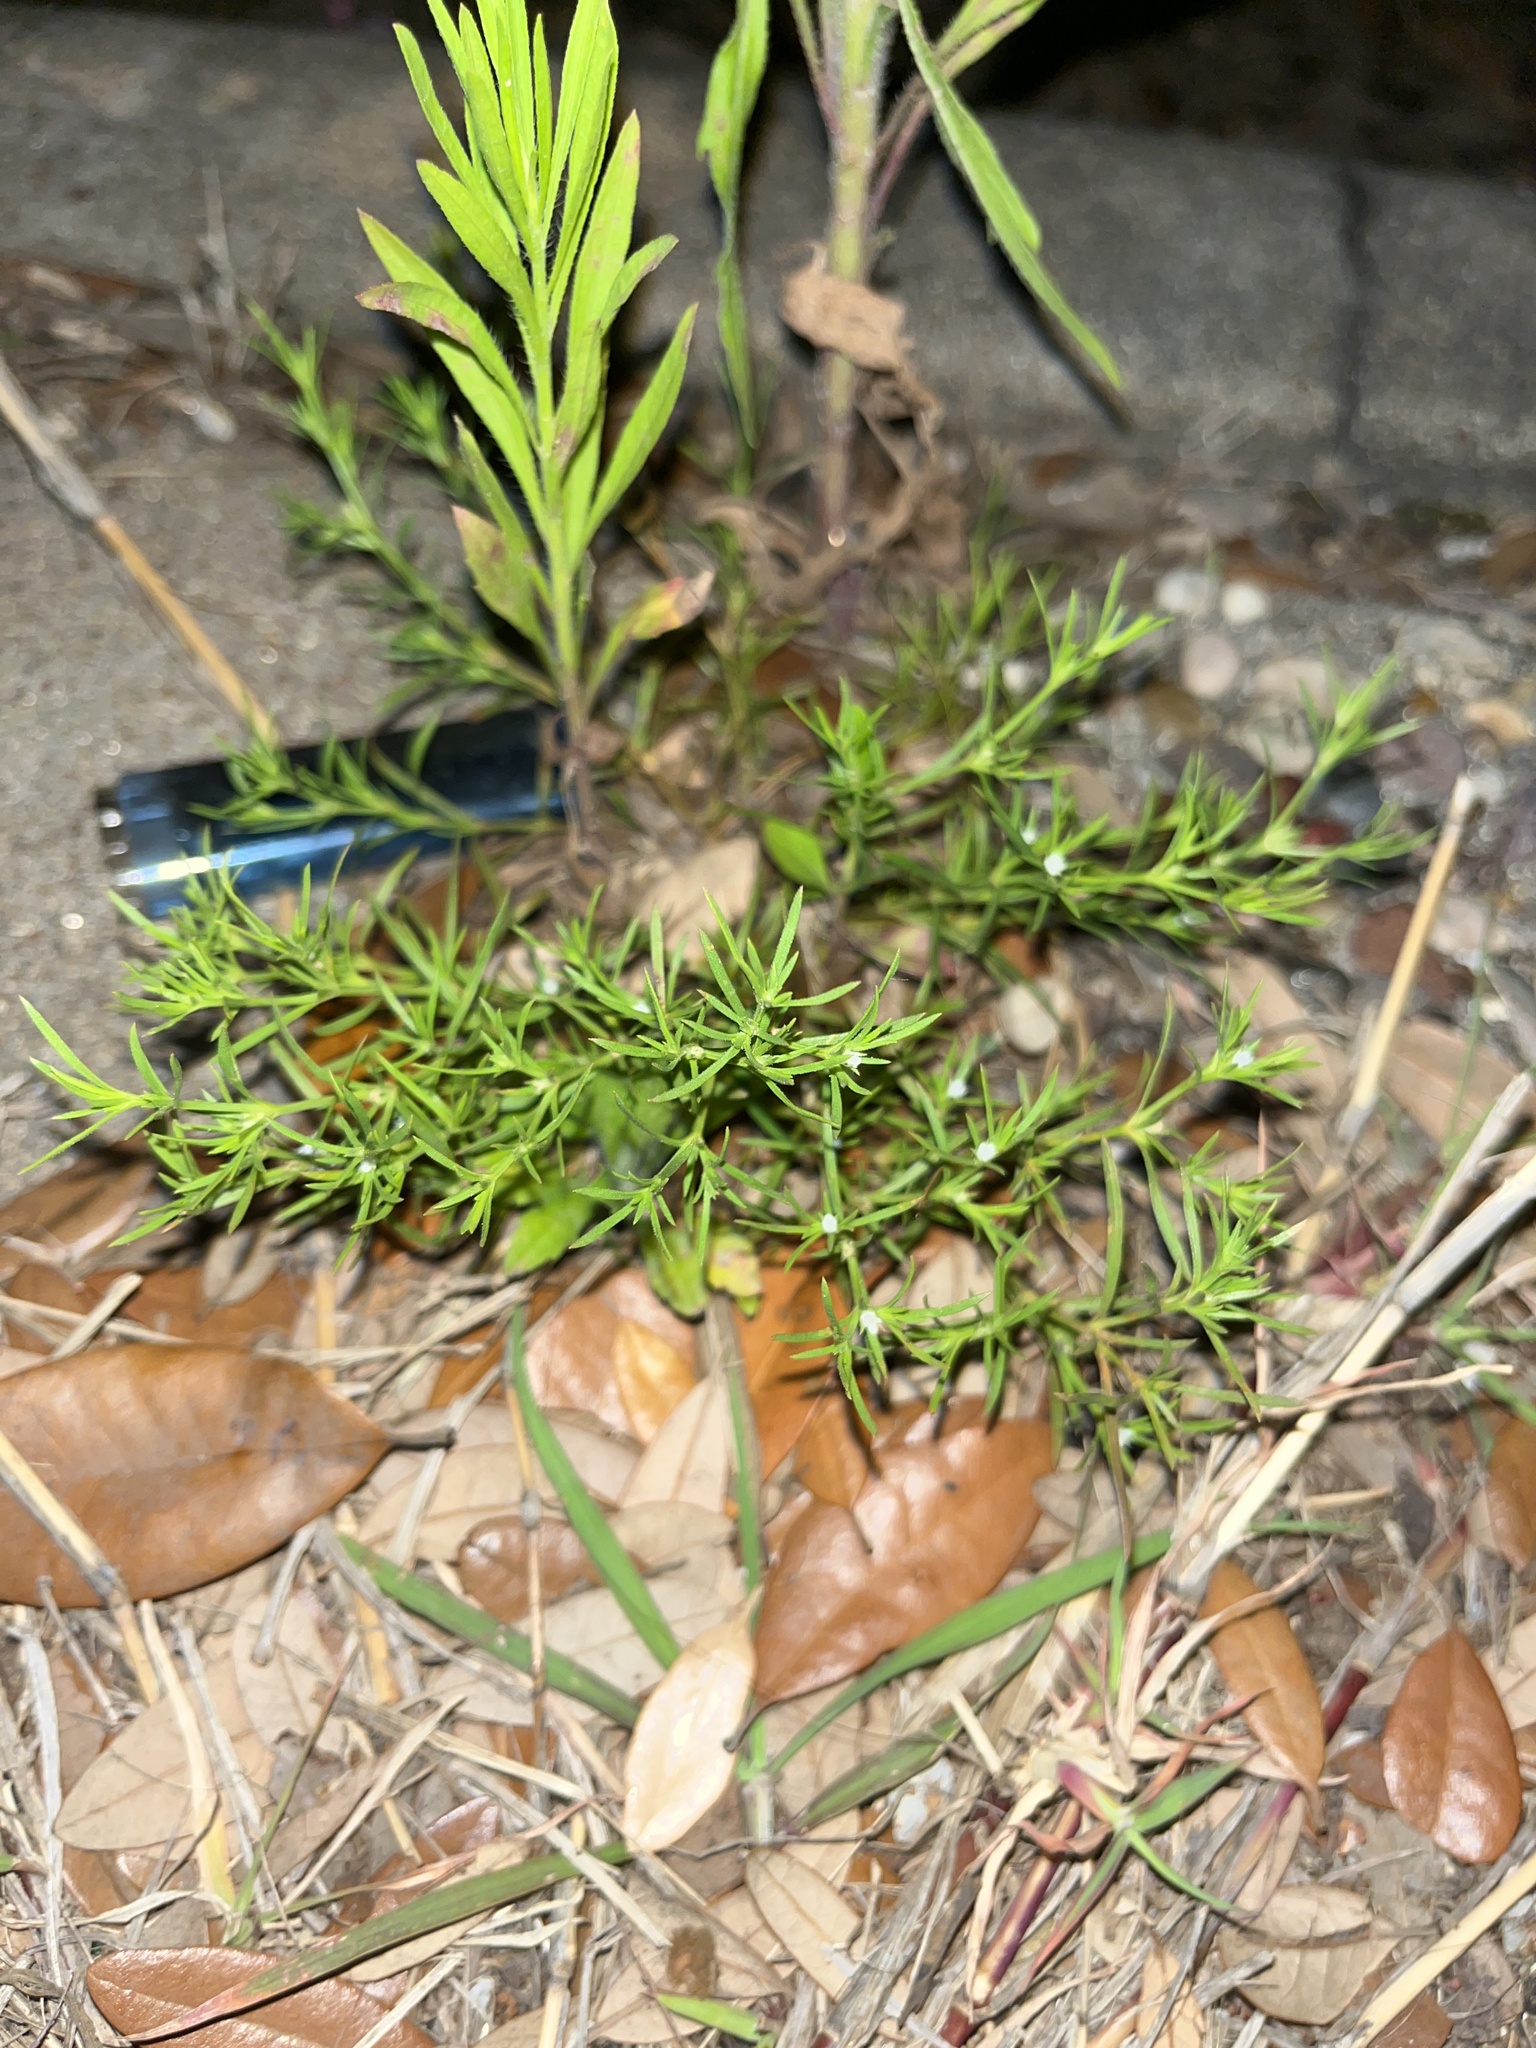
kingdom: Plantae
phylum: Tracheophyta
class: Magnoliopsida
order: Lamiales
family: Tetrachondraceae
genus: Polypremum
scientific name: Polypremum procumbens
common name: Juniper-leaf
